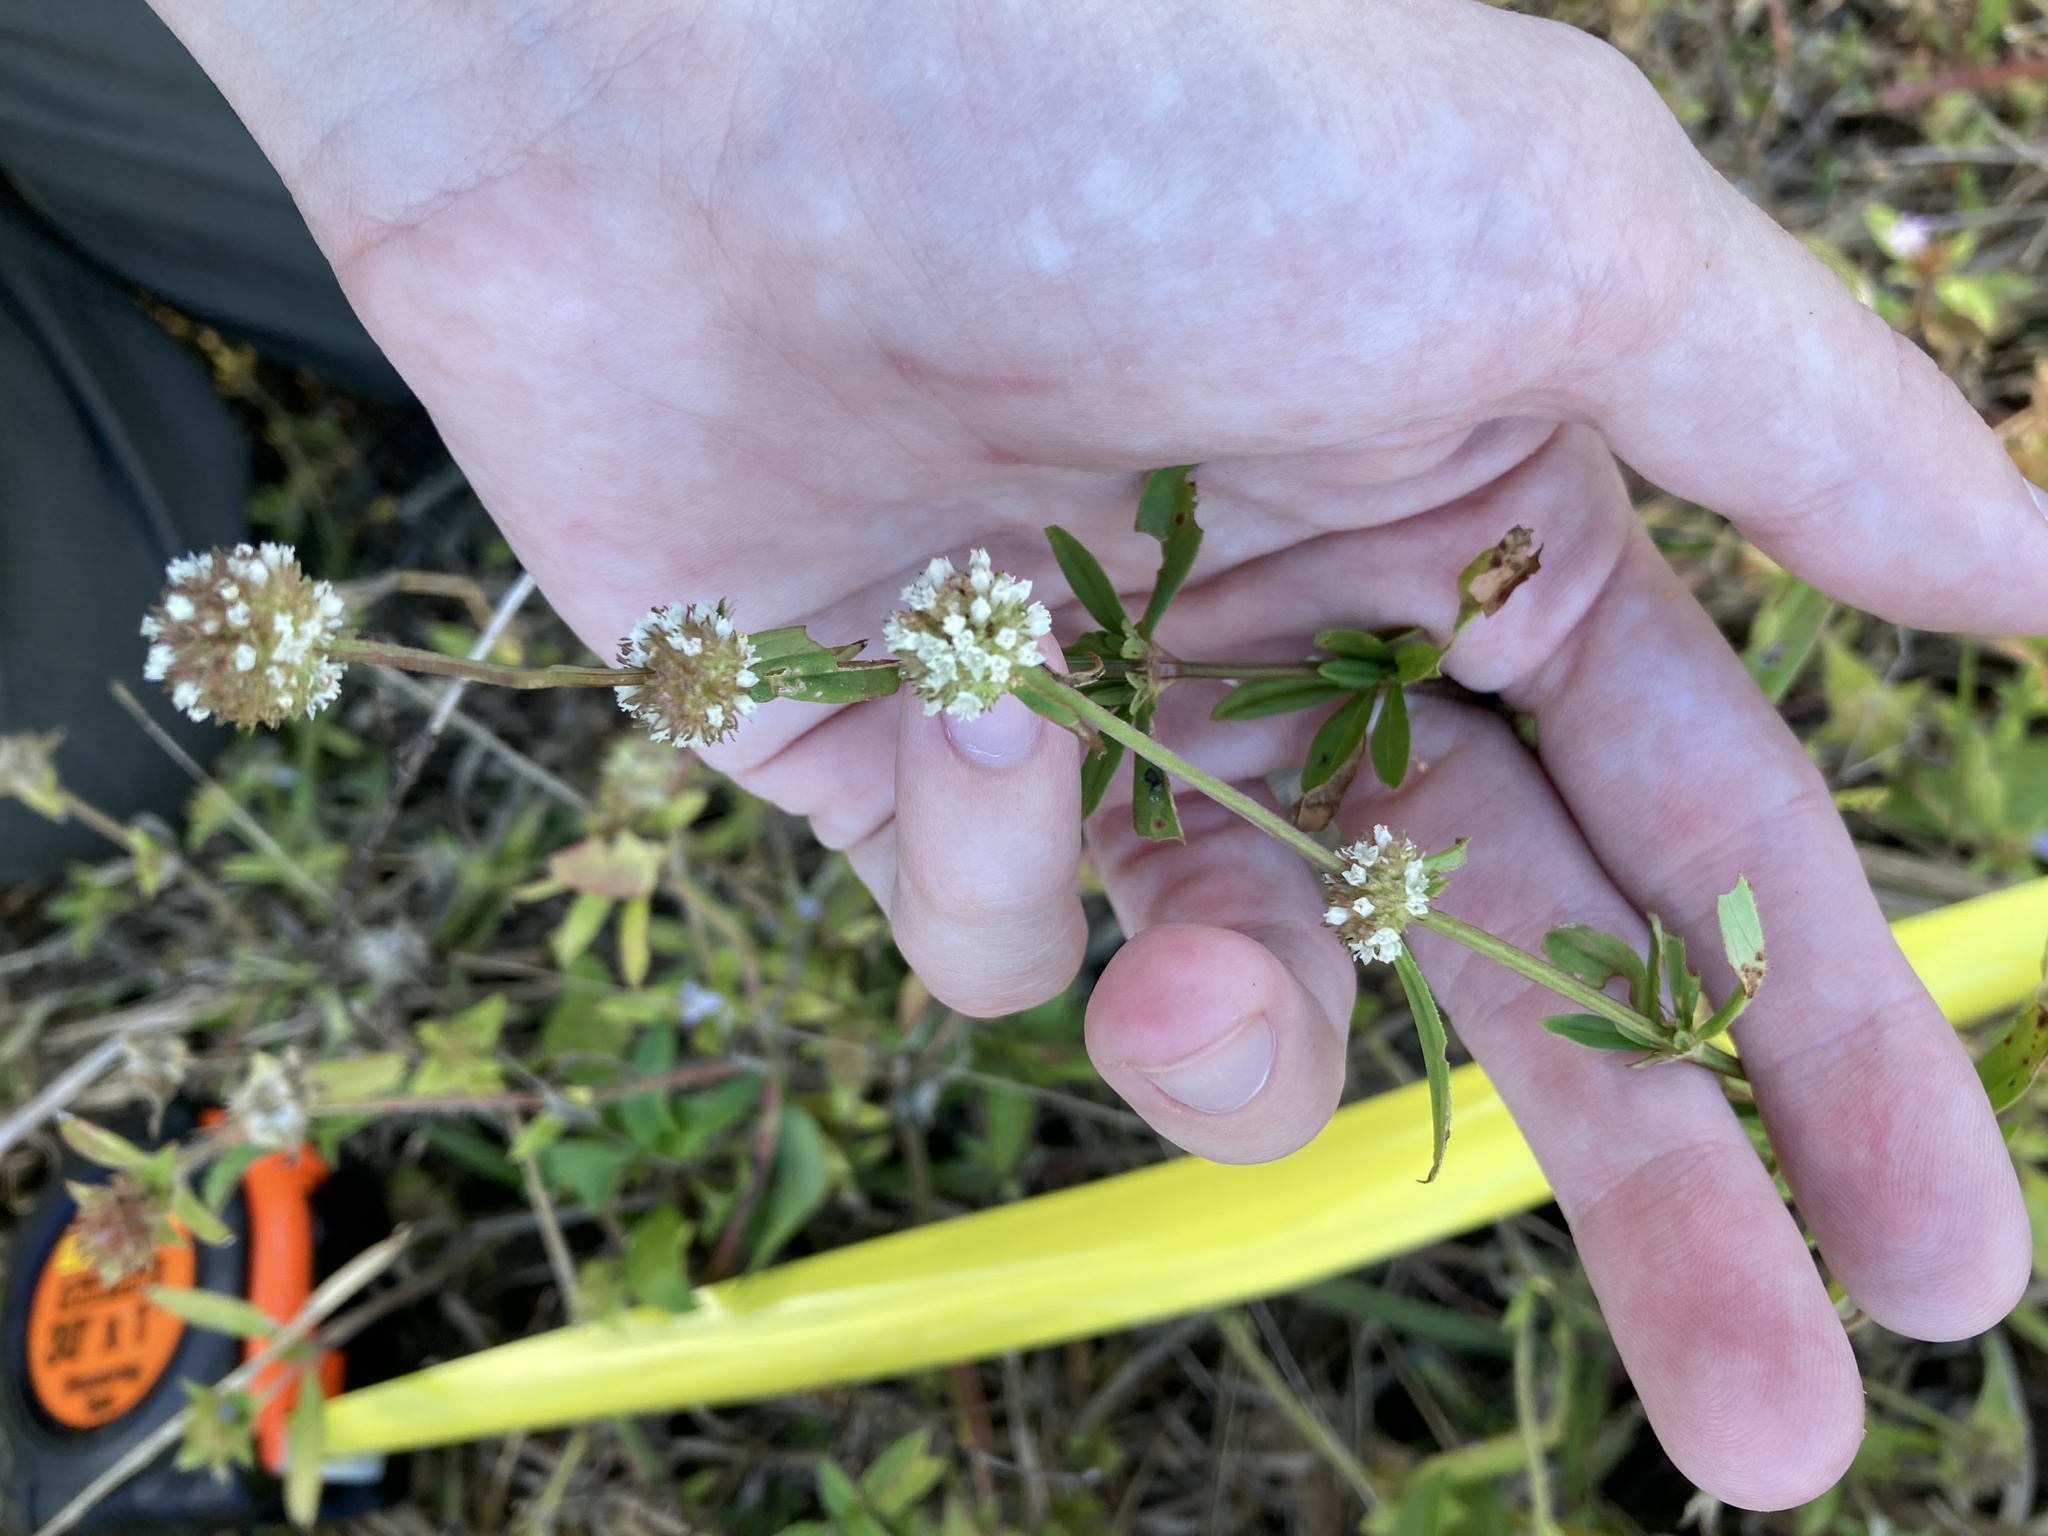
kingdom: Plantae
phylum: Tracheophyta
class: Magnoliopsida
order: Gentianales
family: Rubiaceae
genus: Spermacoce
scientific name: Spermacoce verticillata
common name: Shrubby false buttonweed
